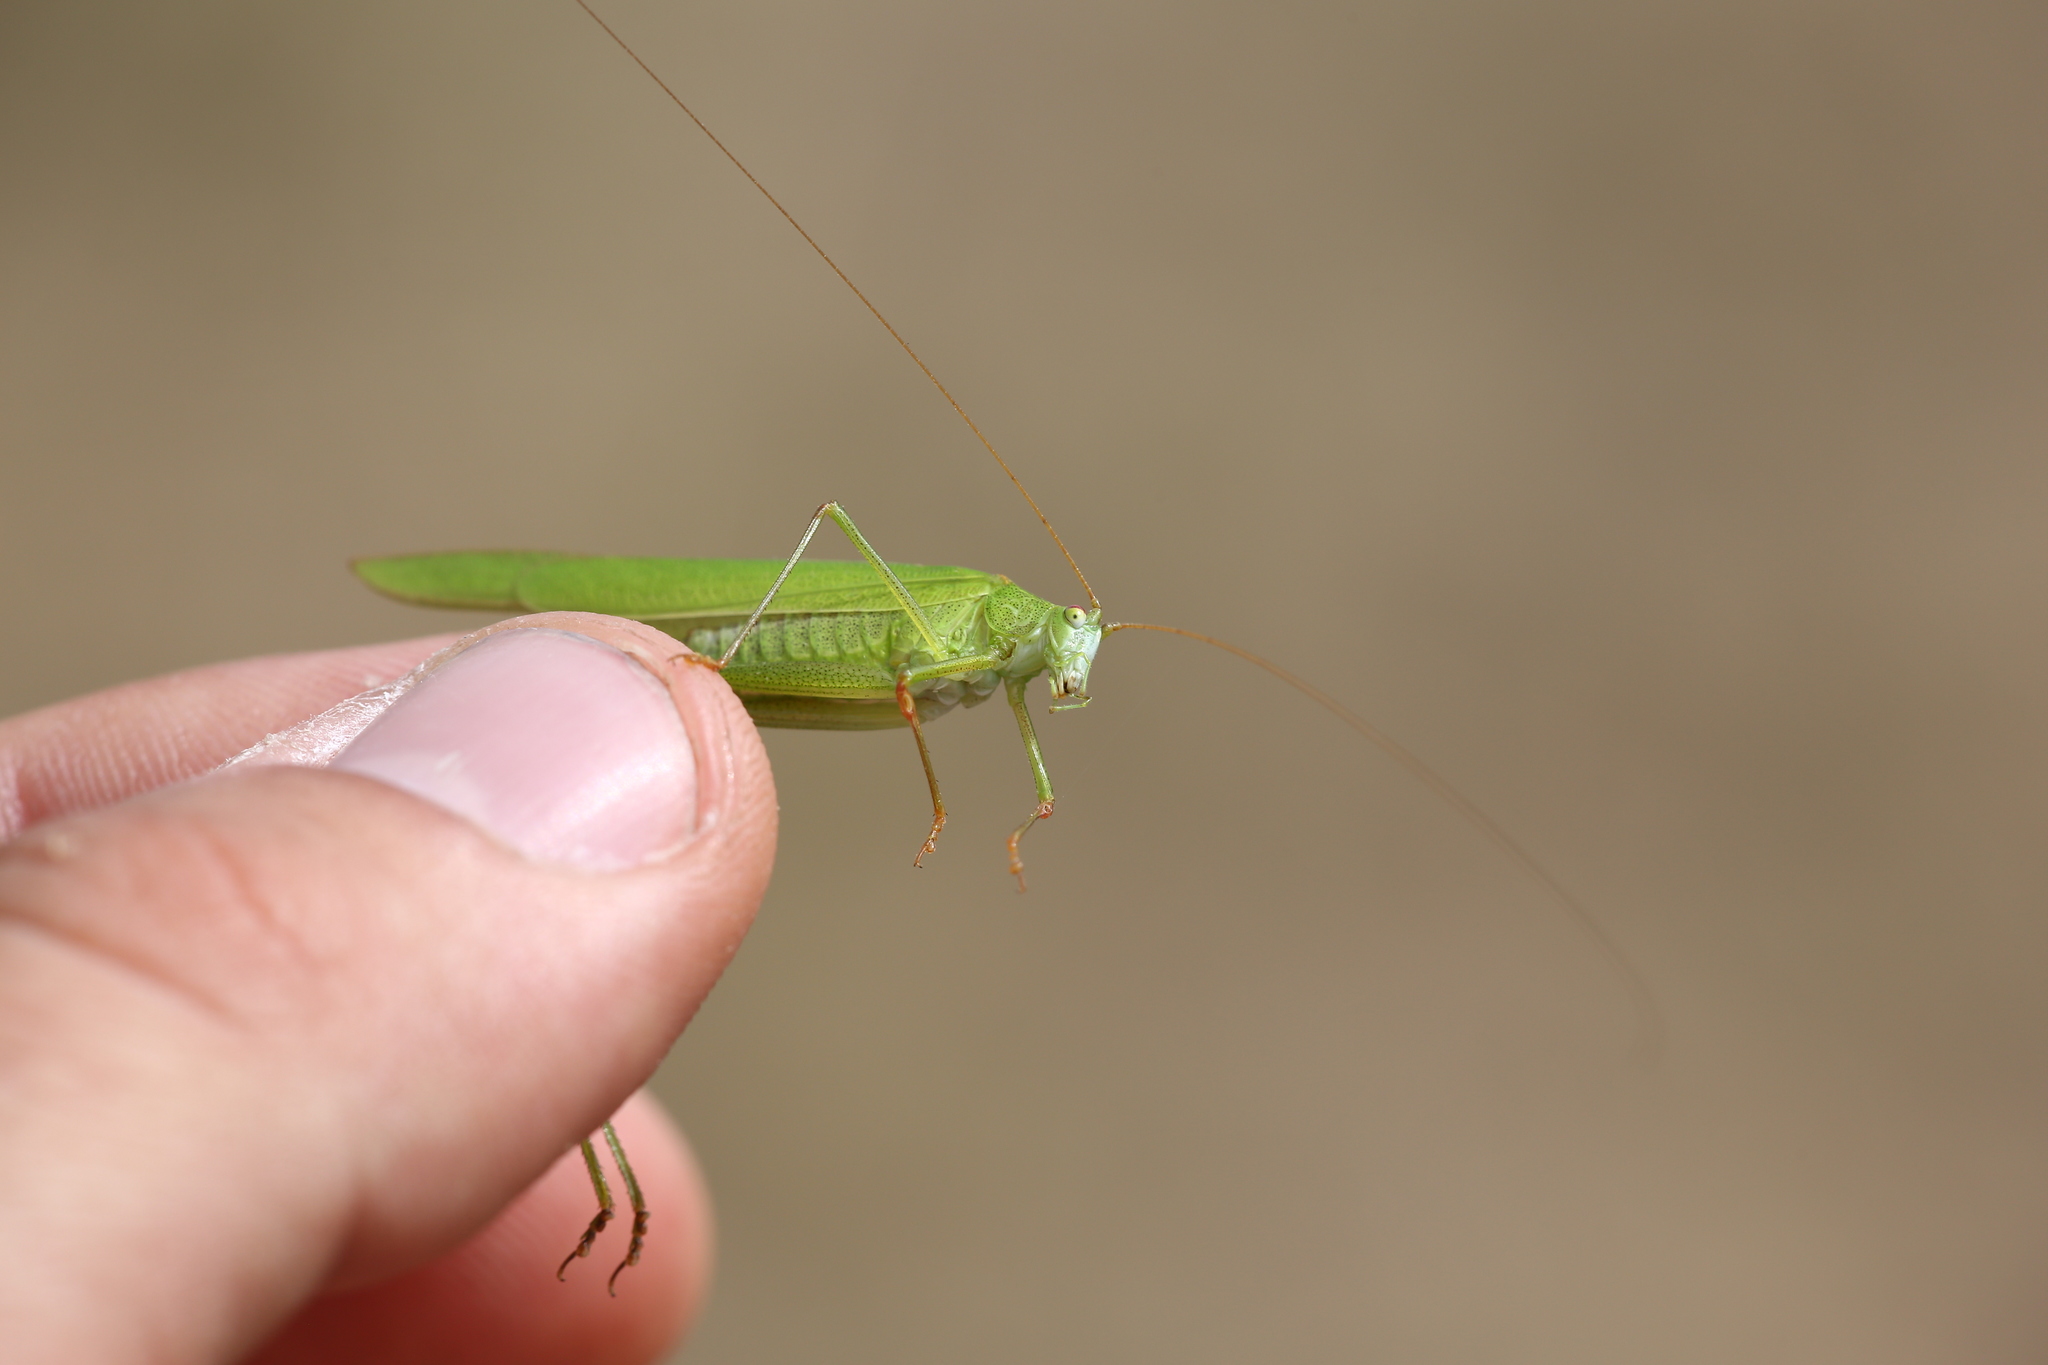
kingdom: Animalia
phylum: Arthropoda
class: Insecta
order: Orthoptera
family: Tettigoniidae
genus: Phaneroptera
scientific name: Phaneroptera falcata
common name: Sickle-bearing bush-cricket
